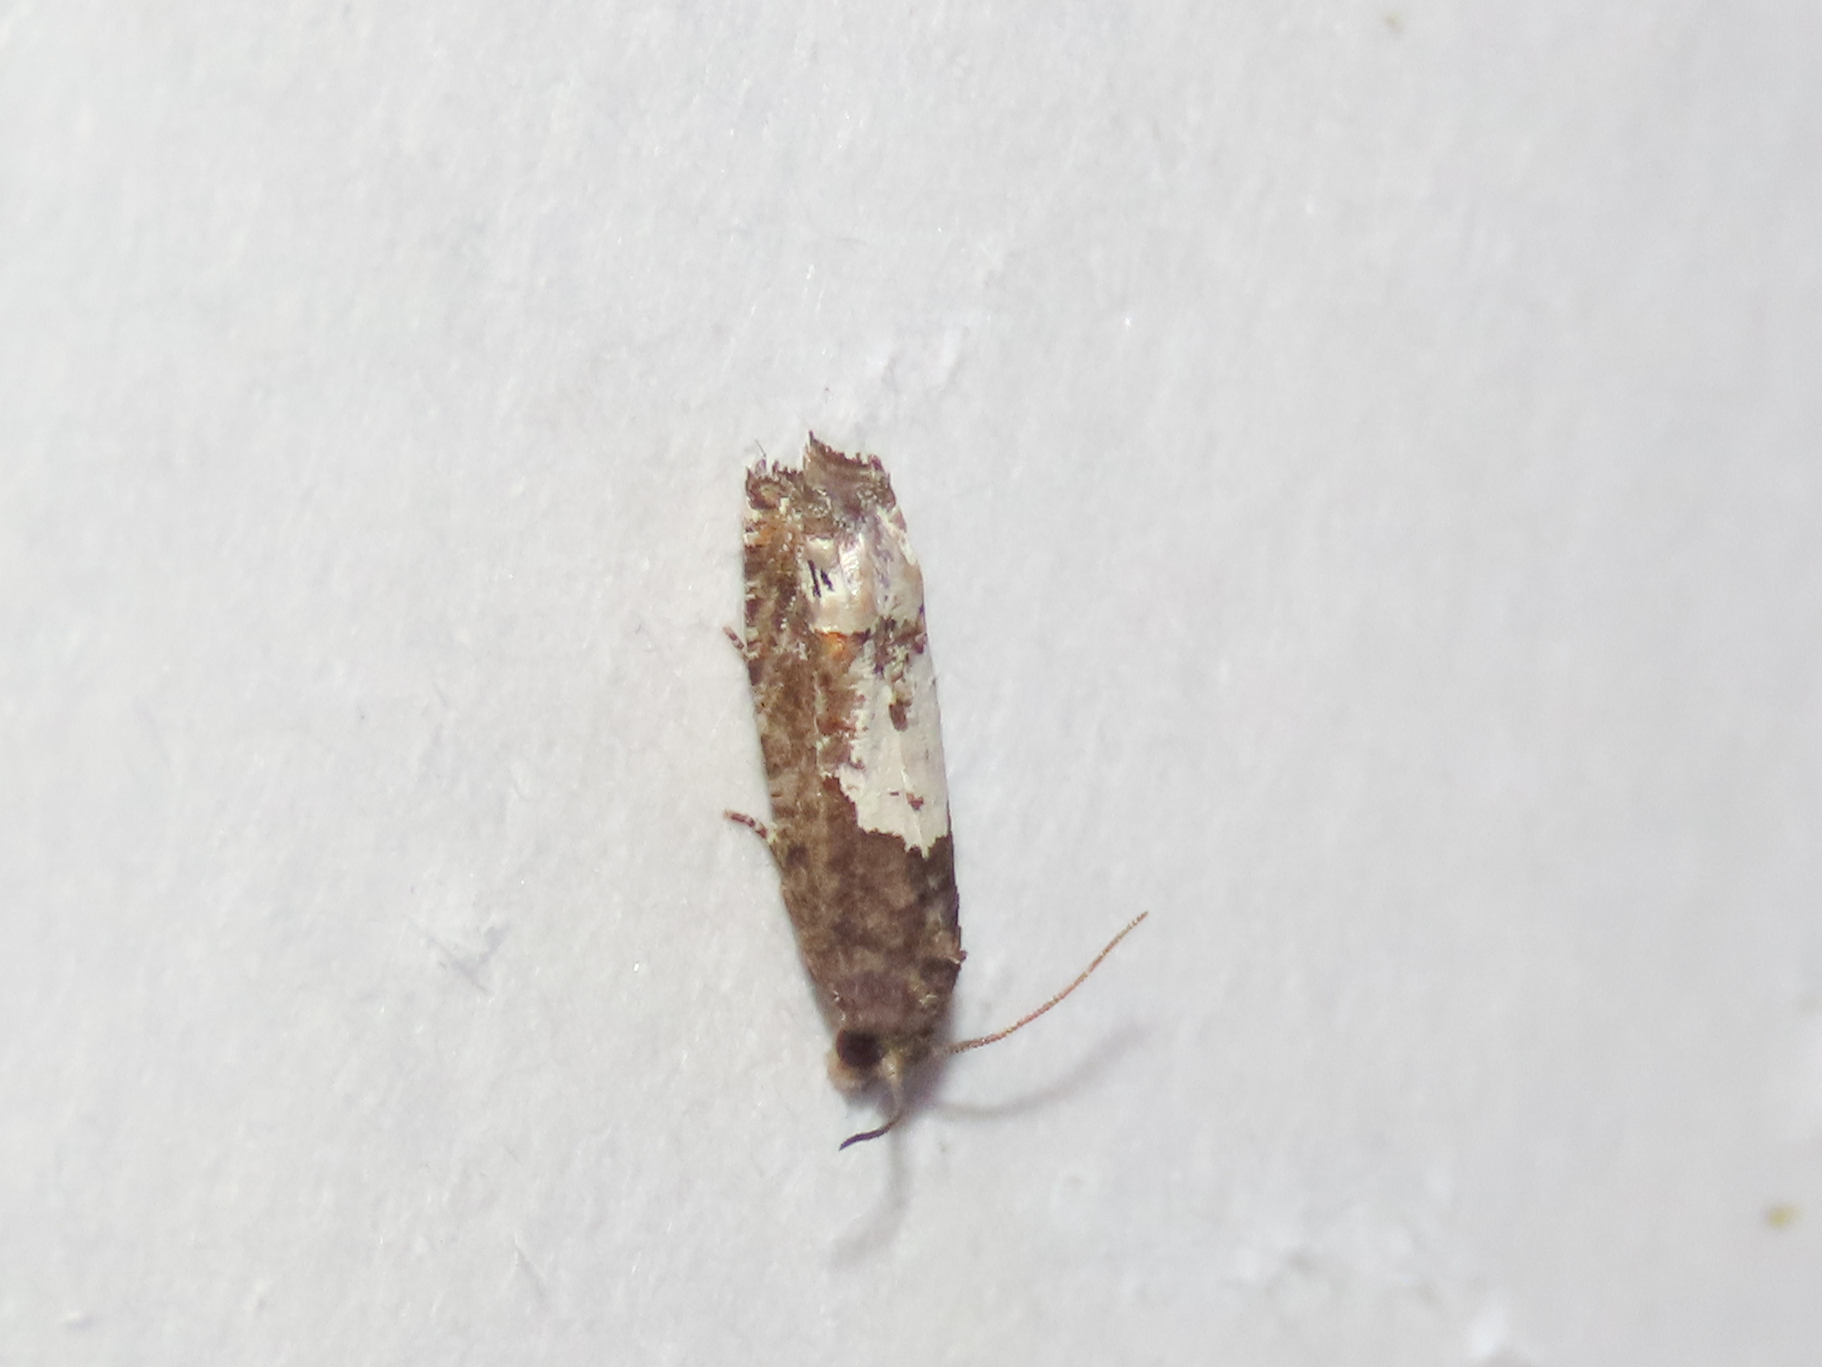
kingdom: Animalia
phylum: Arthropoda
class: Insecta
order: Lepidoptera
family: Tortricidae
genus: Eucosma
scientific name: Eucosma parmatana
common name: Aster eucosma moth
